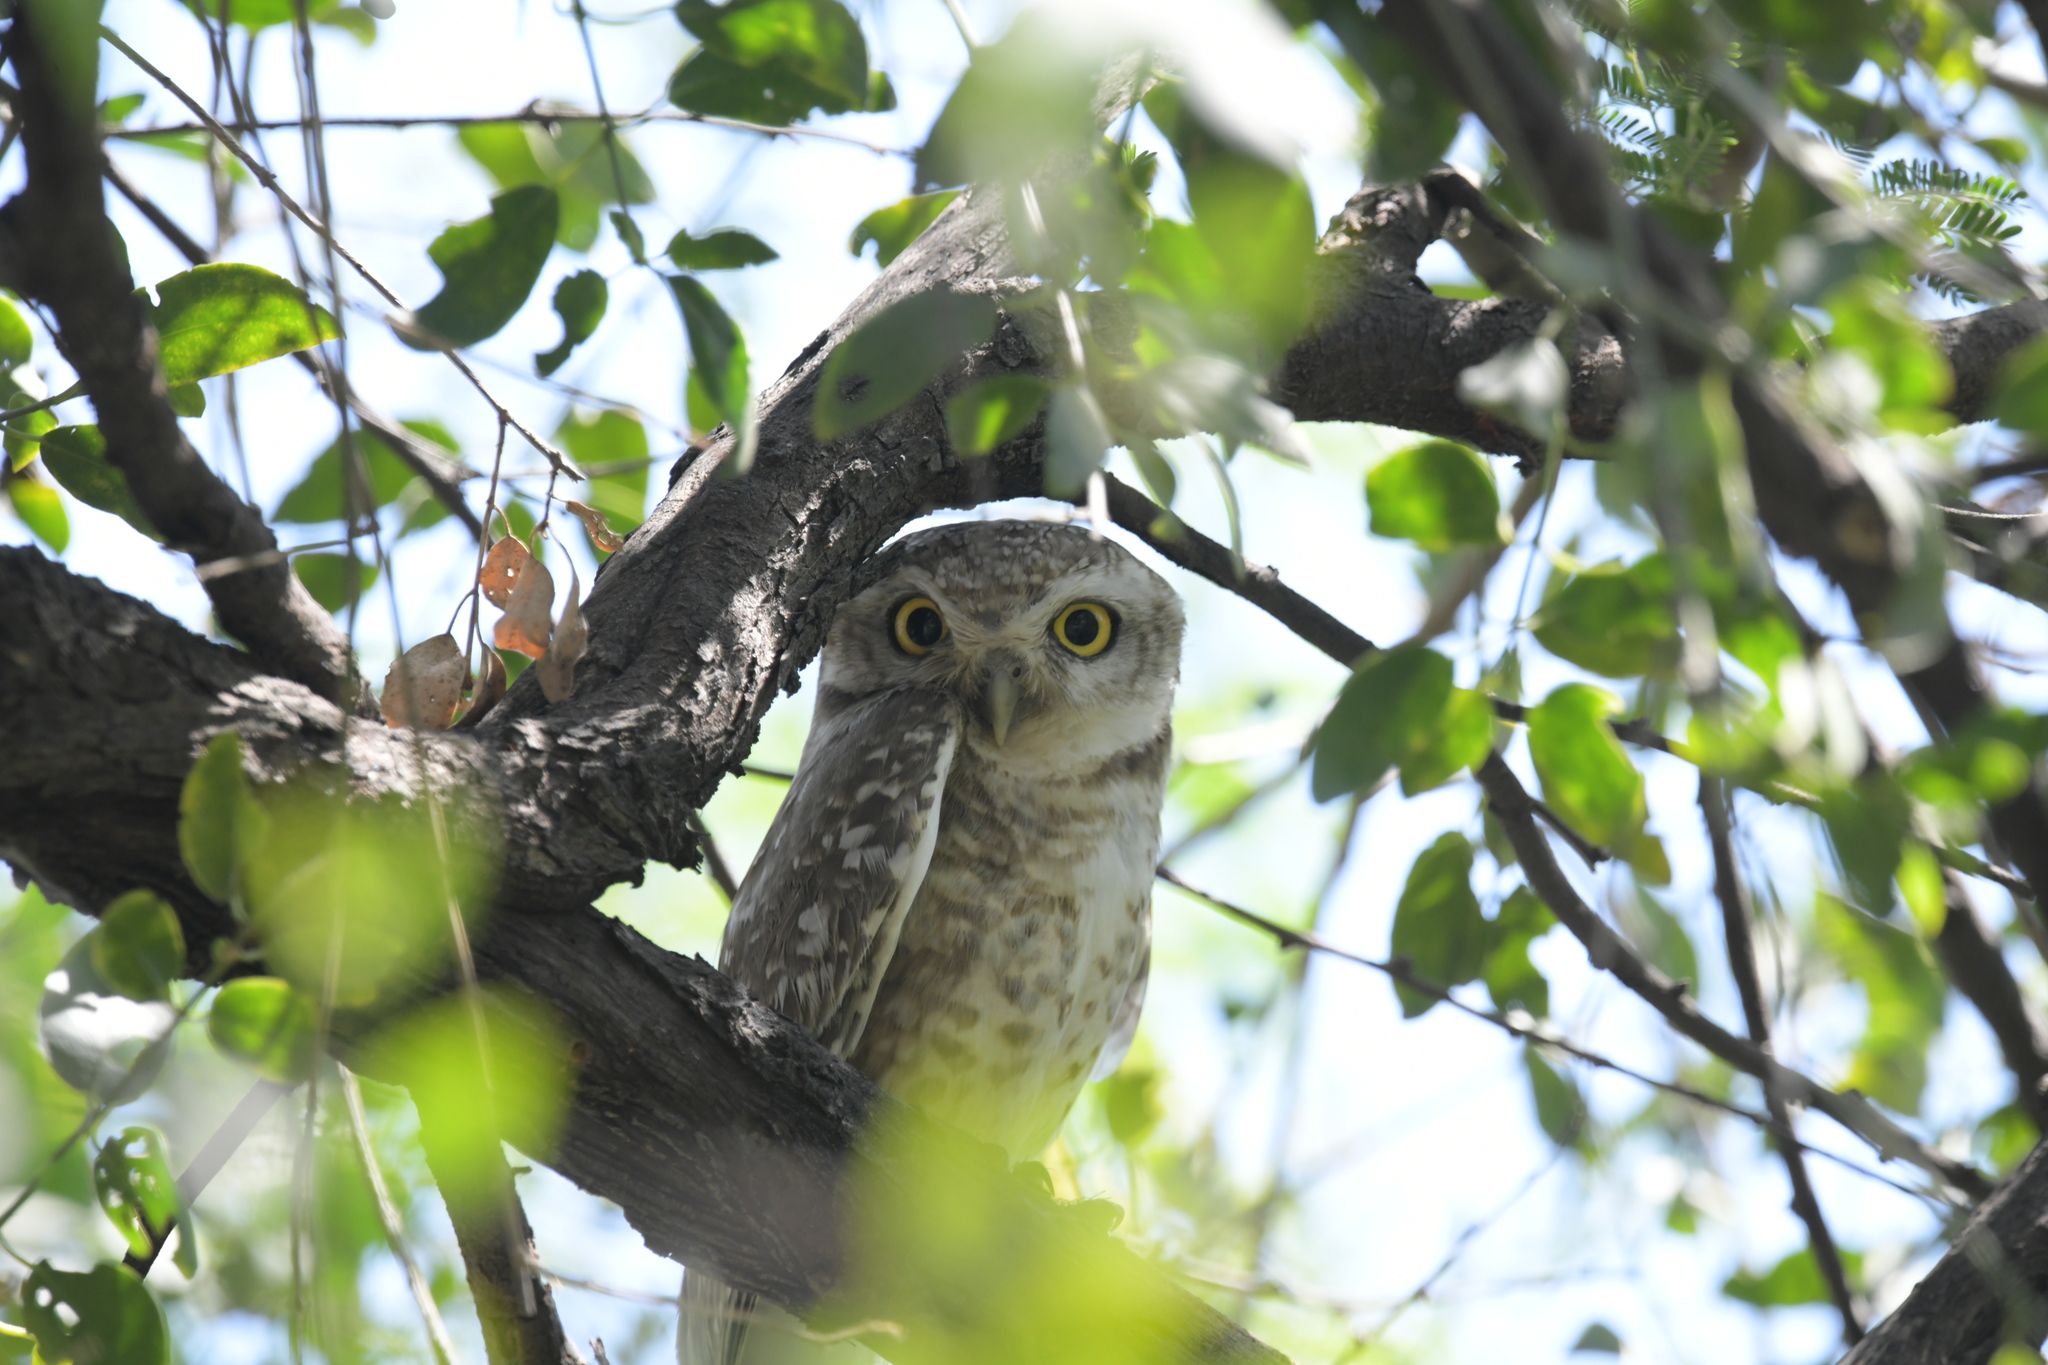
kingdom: Animalia
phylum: Chordata
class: Aves
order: Strigiformes
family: Strigidae
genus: Athene
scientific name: Athene brama
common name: Spotted owlet
